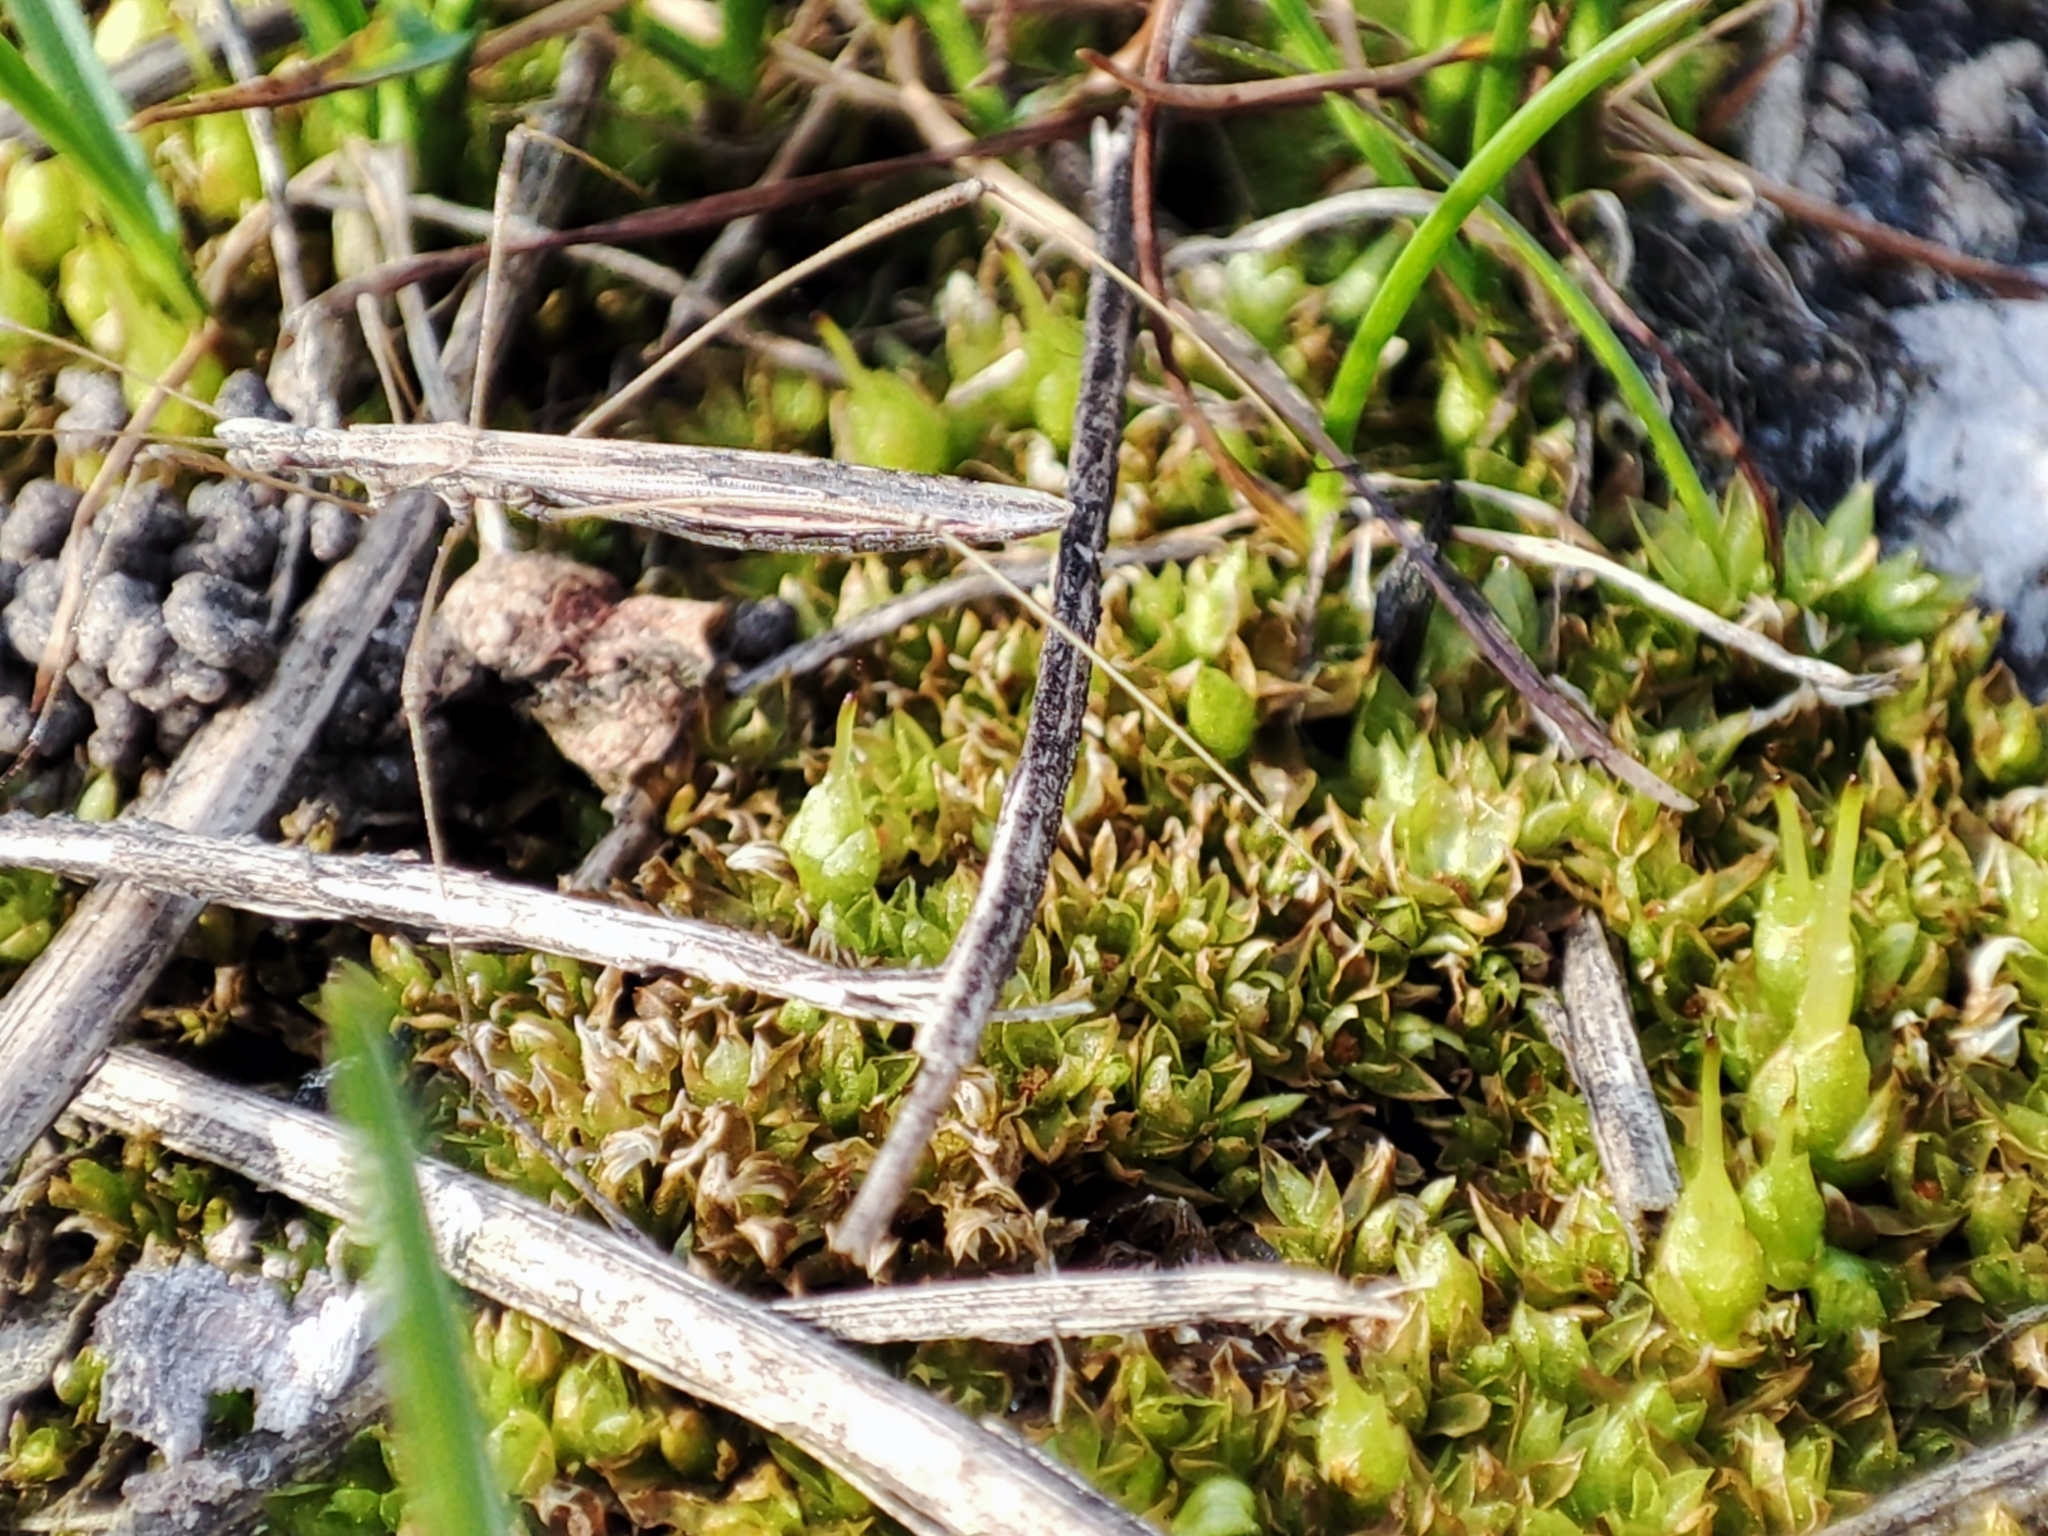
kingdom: Animalia
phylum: Arthropoda
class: Insecta
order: Hemiptera
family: Berytidae
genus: Neides
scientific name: Neides tipularius
